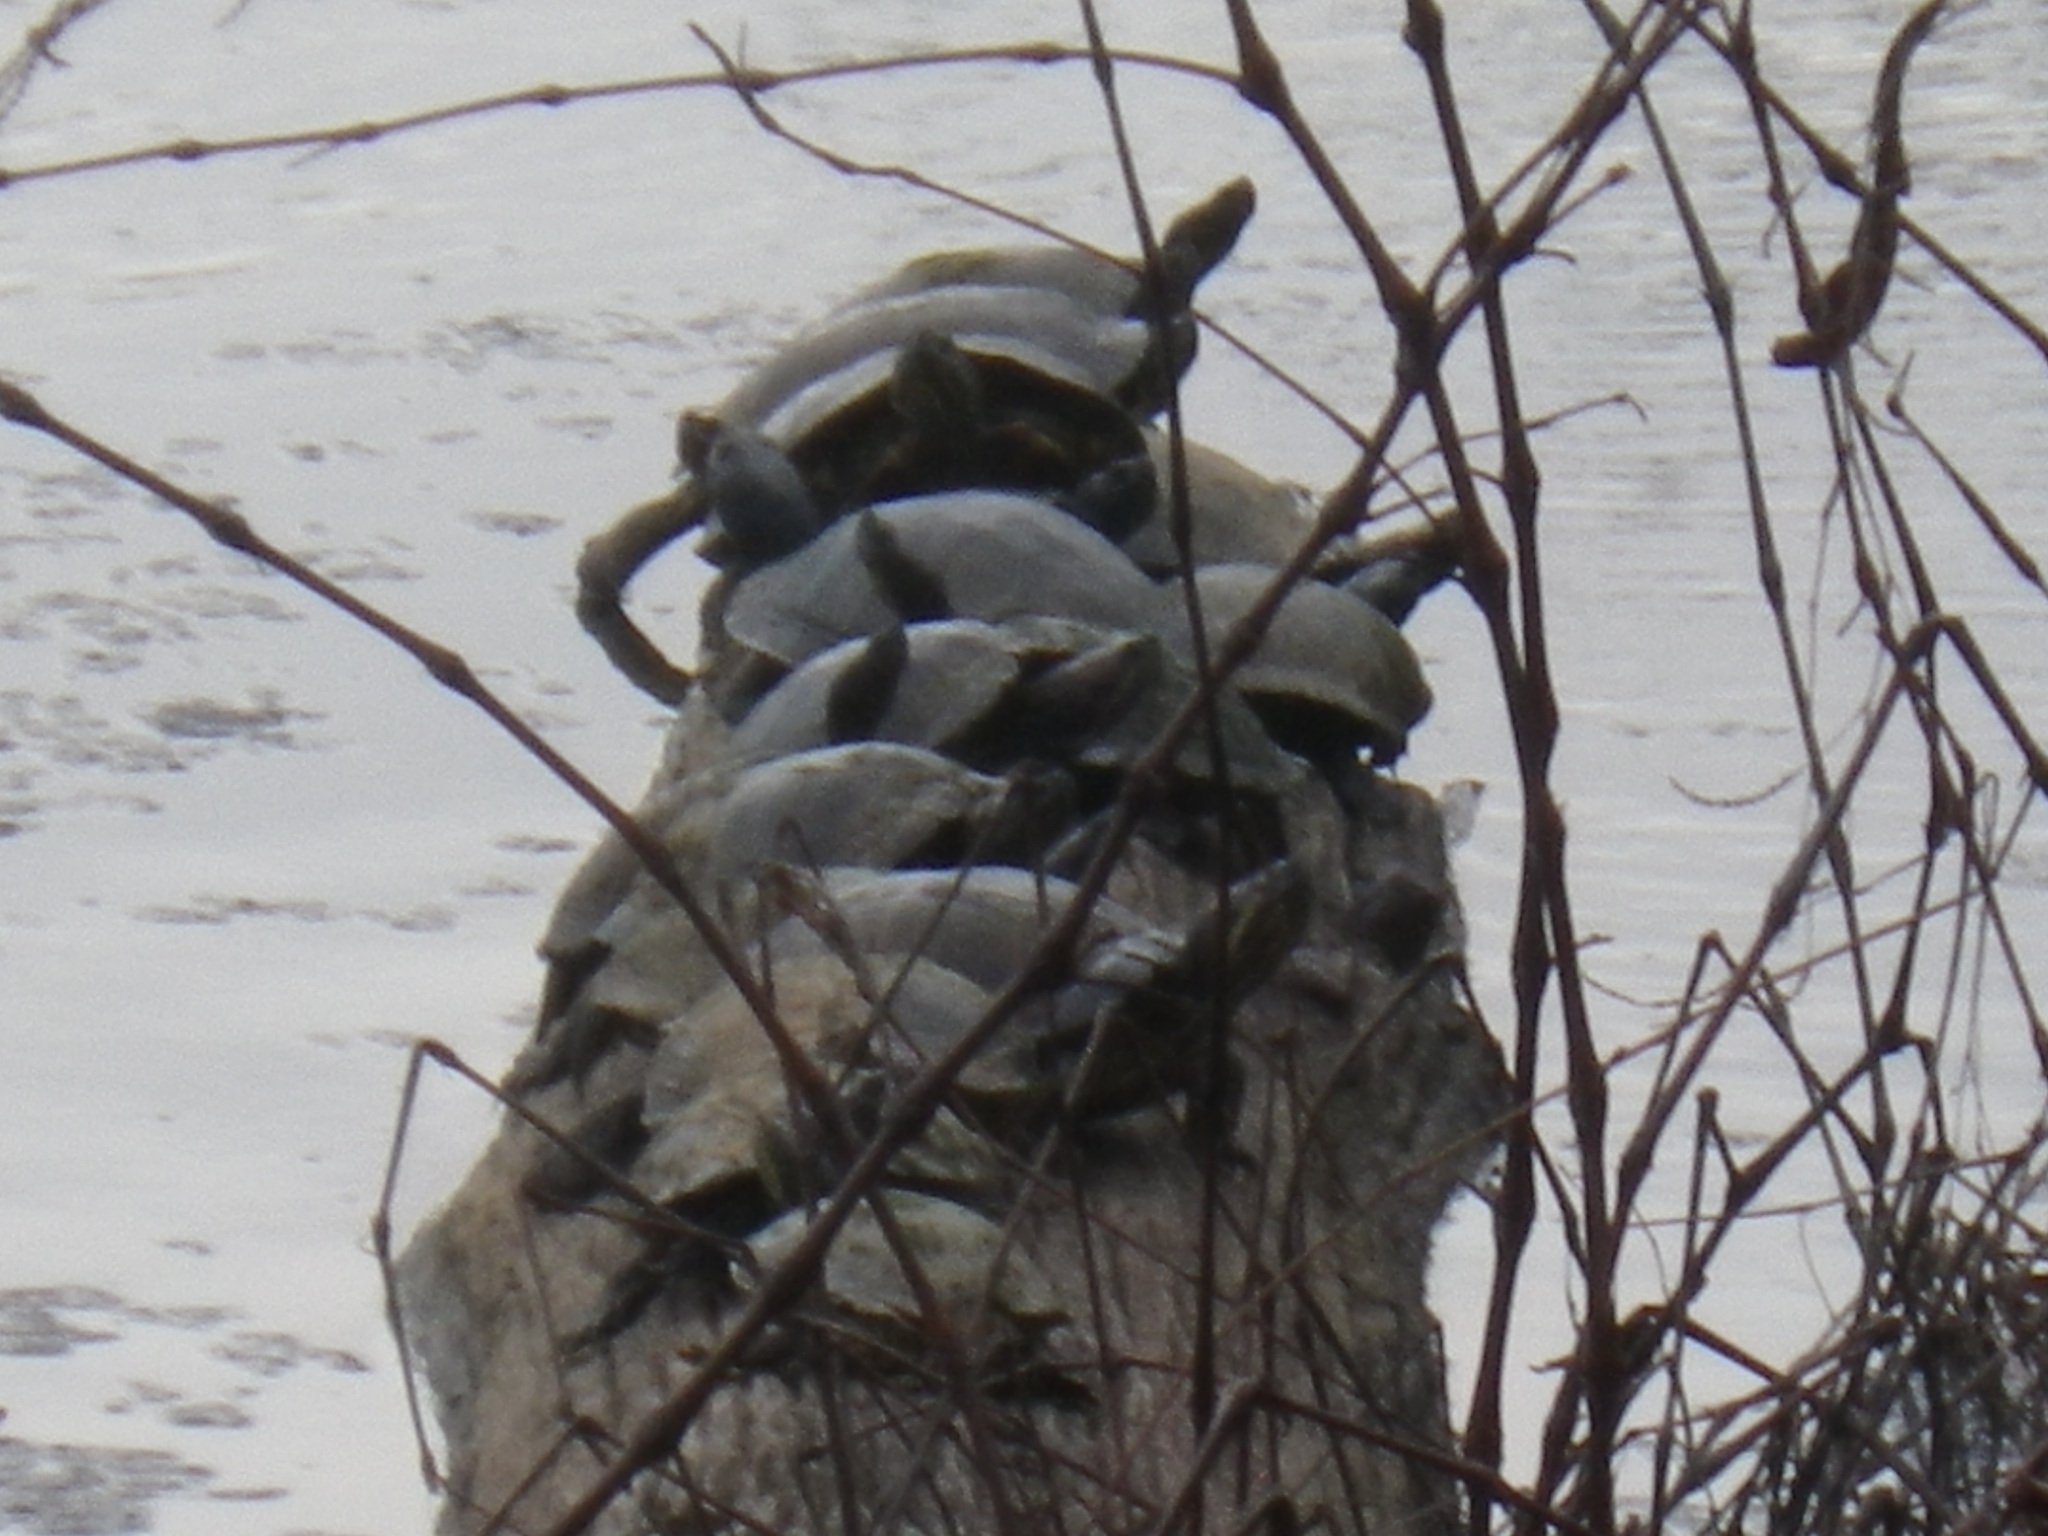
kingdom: Animalia
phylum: Chordata
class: Testudines
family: Emydidae
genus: Trachemys
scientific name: Trachemys scripta
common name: Slider
